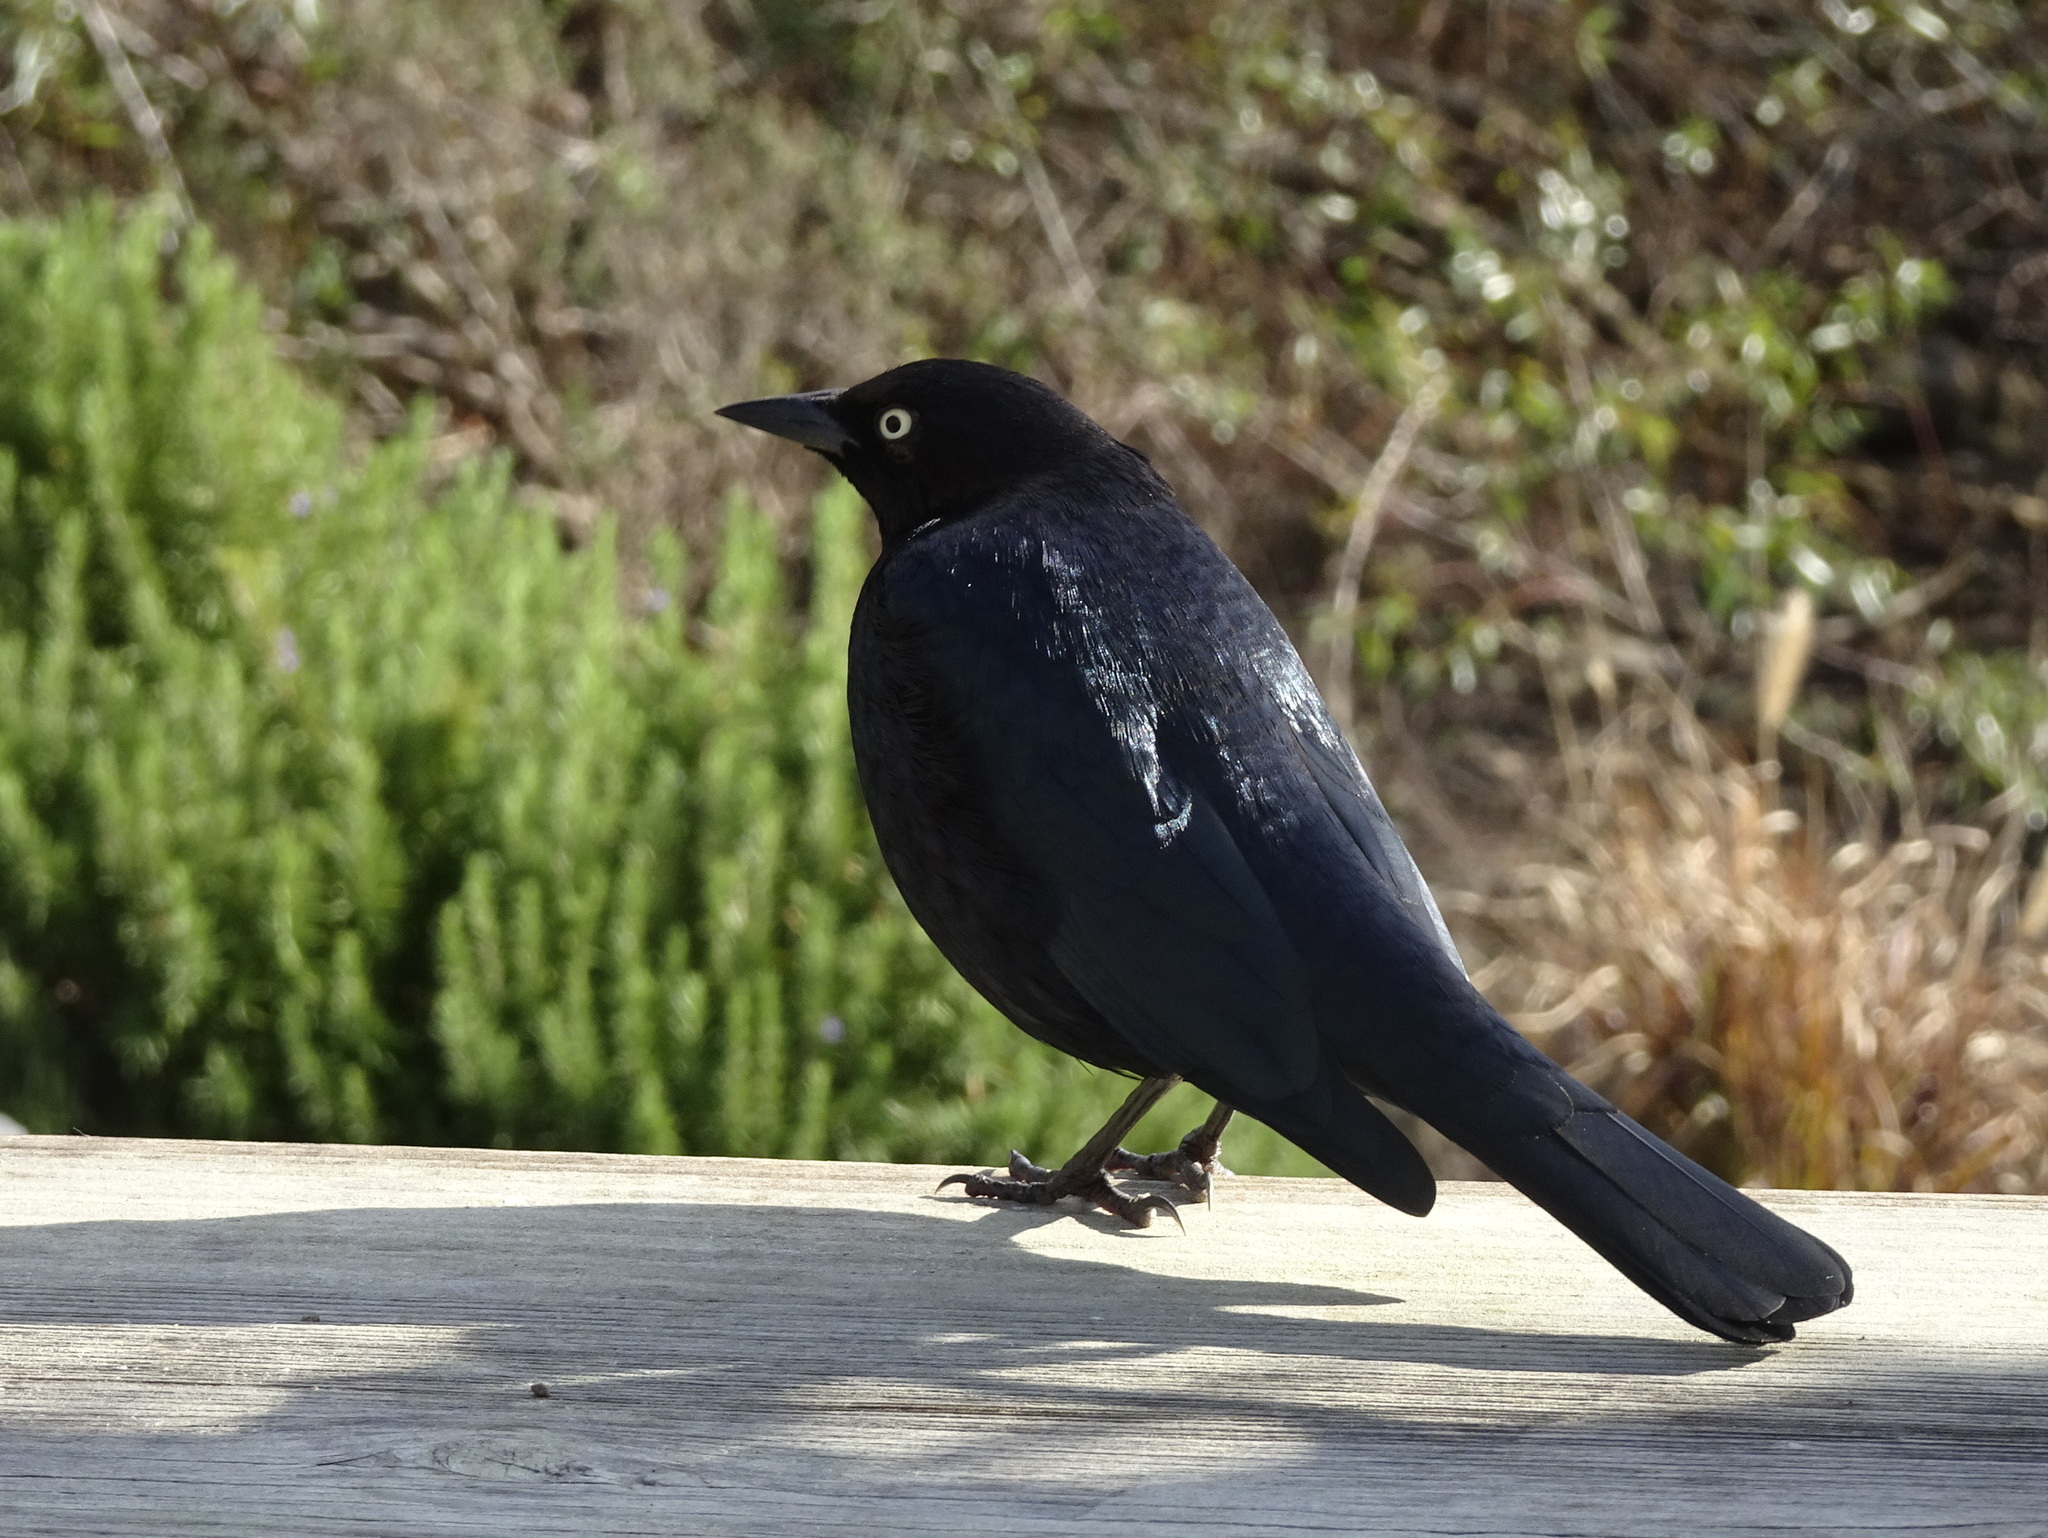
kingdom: Animalia
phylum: Chordata
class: Aves
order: Passeriformes
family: Icteridae
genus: Euphagus
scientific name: Euphagus cyanocephalus
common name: Brewer's blackbird
